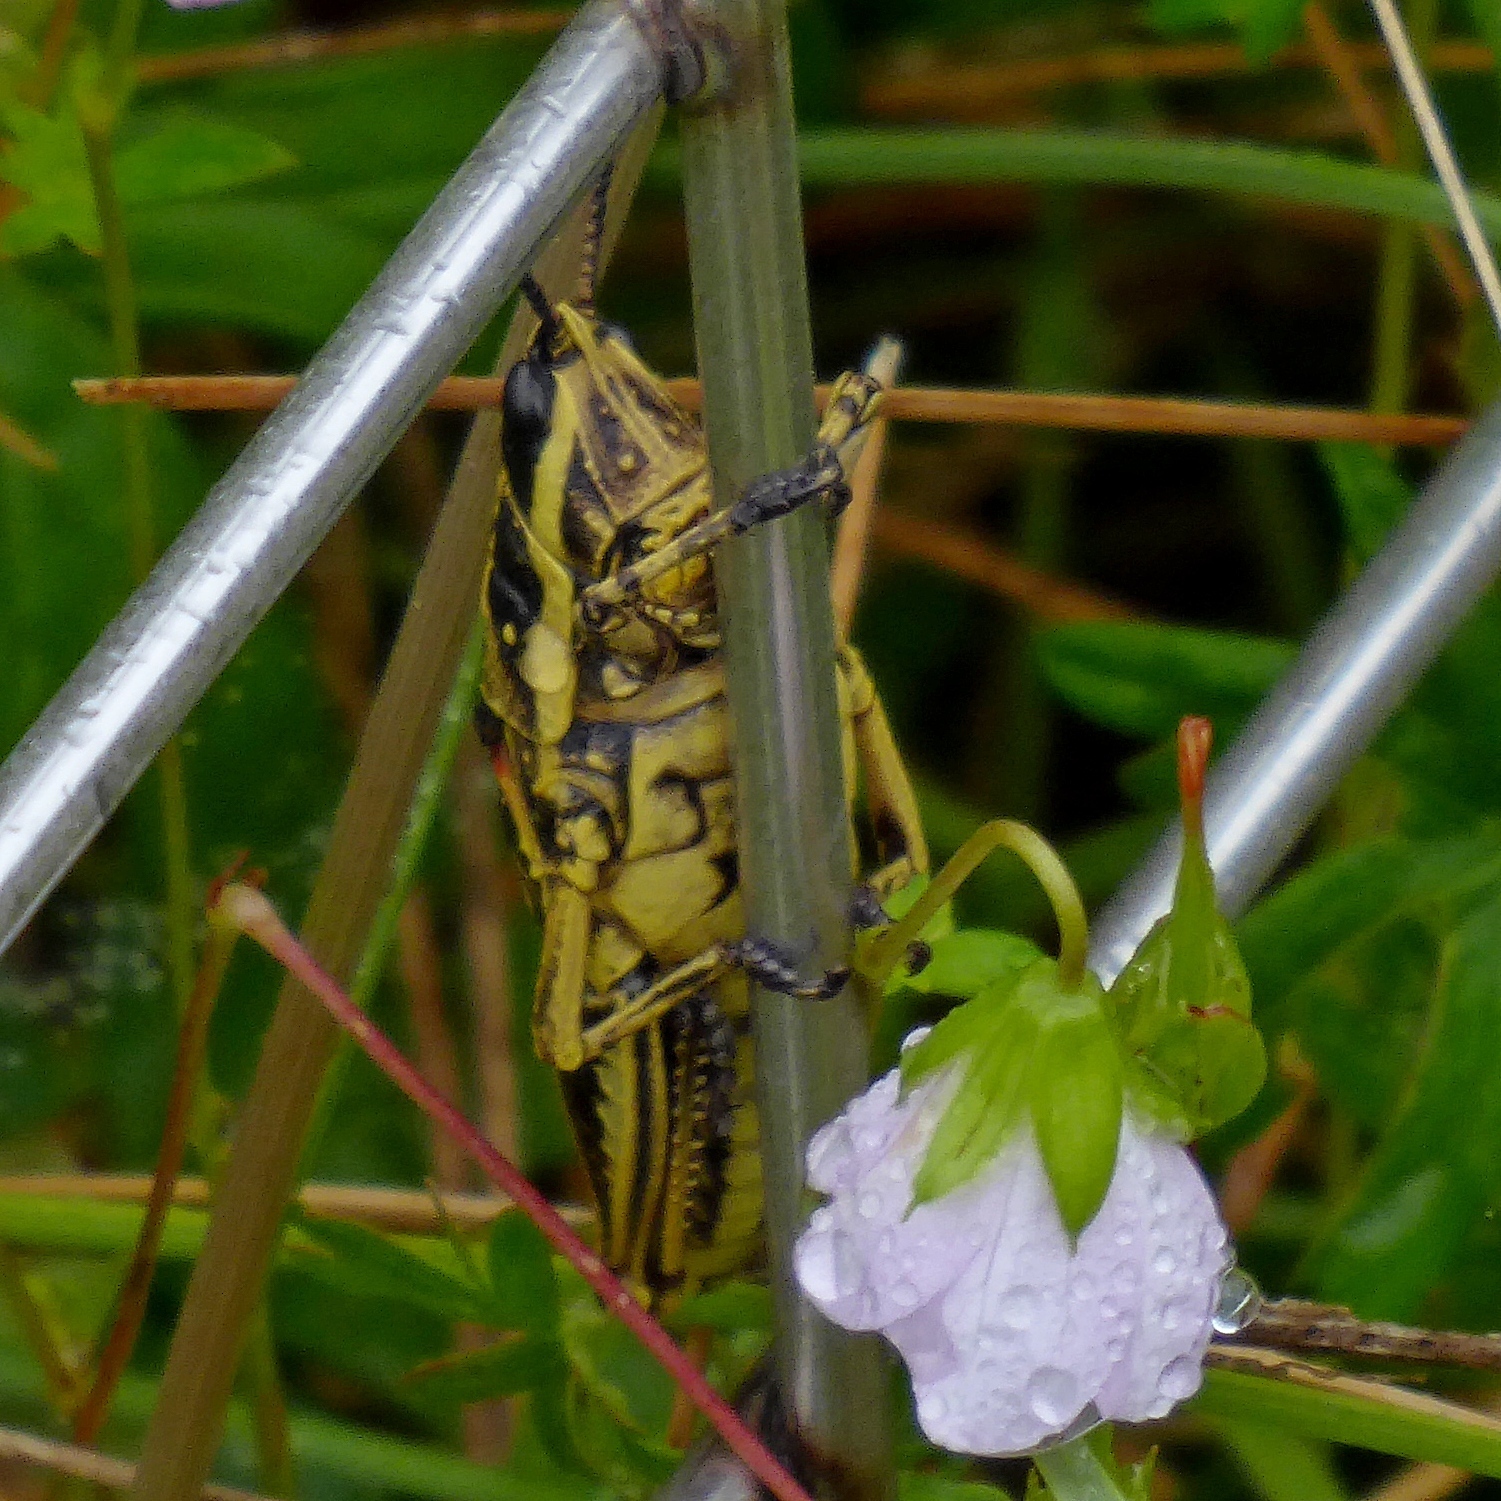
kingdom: Animalia
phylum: Arthropoda
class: Insecta
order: Orthoptera
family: Pyrgomorphidae
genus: Monistria
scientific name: Monistria concinna
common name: Southern pyrgomorph
